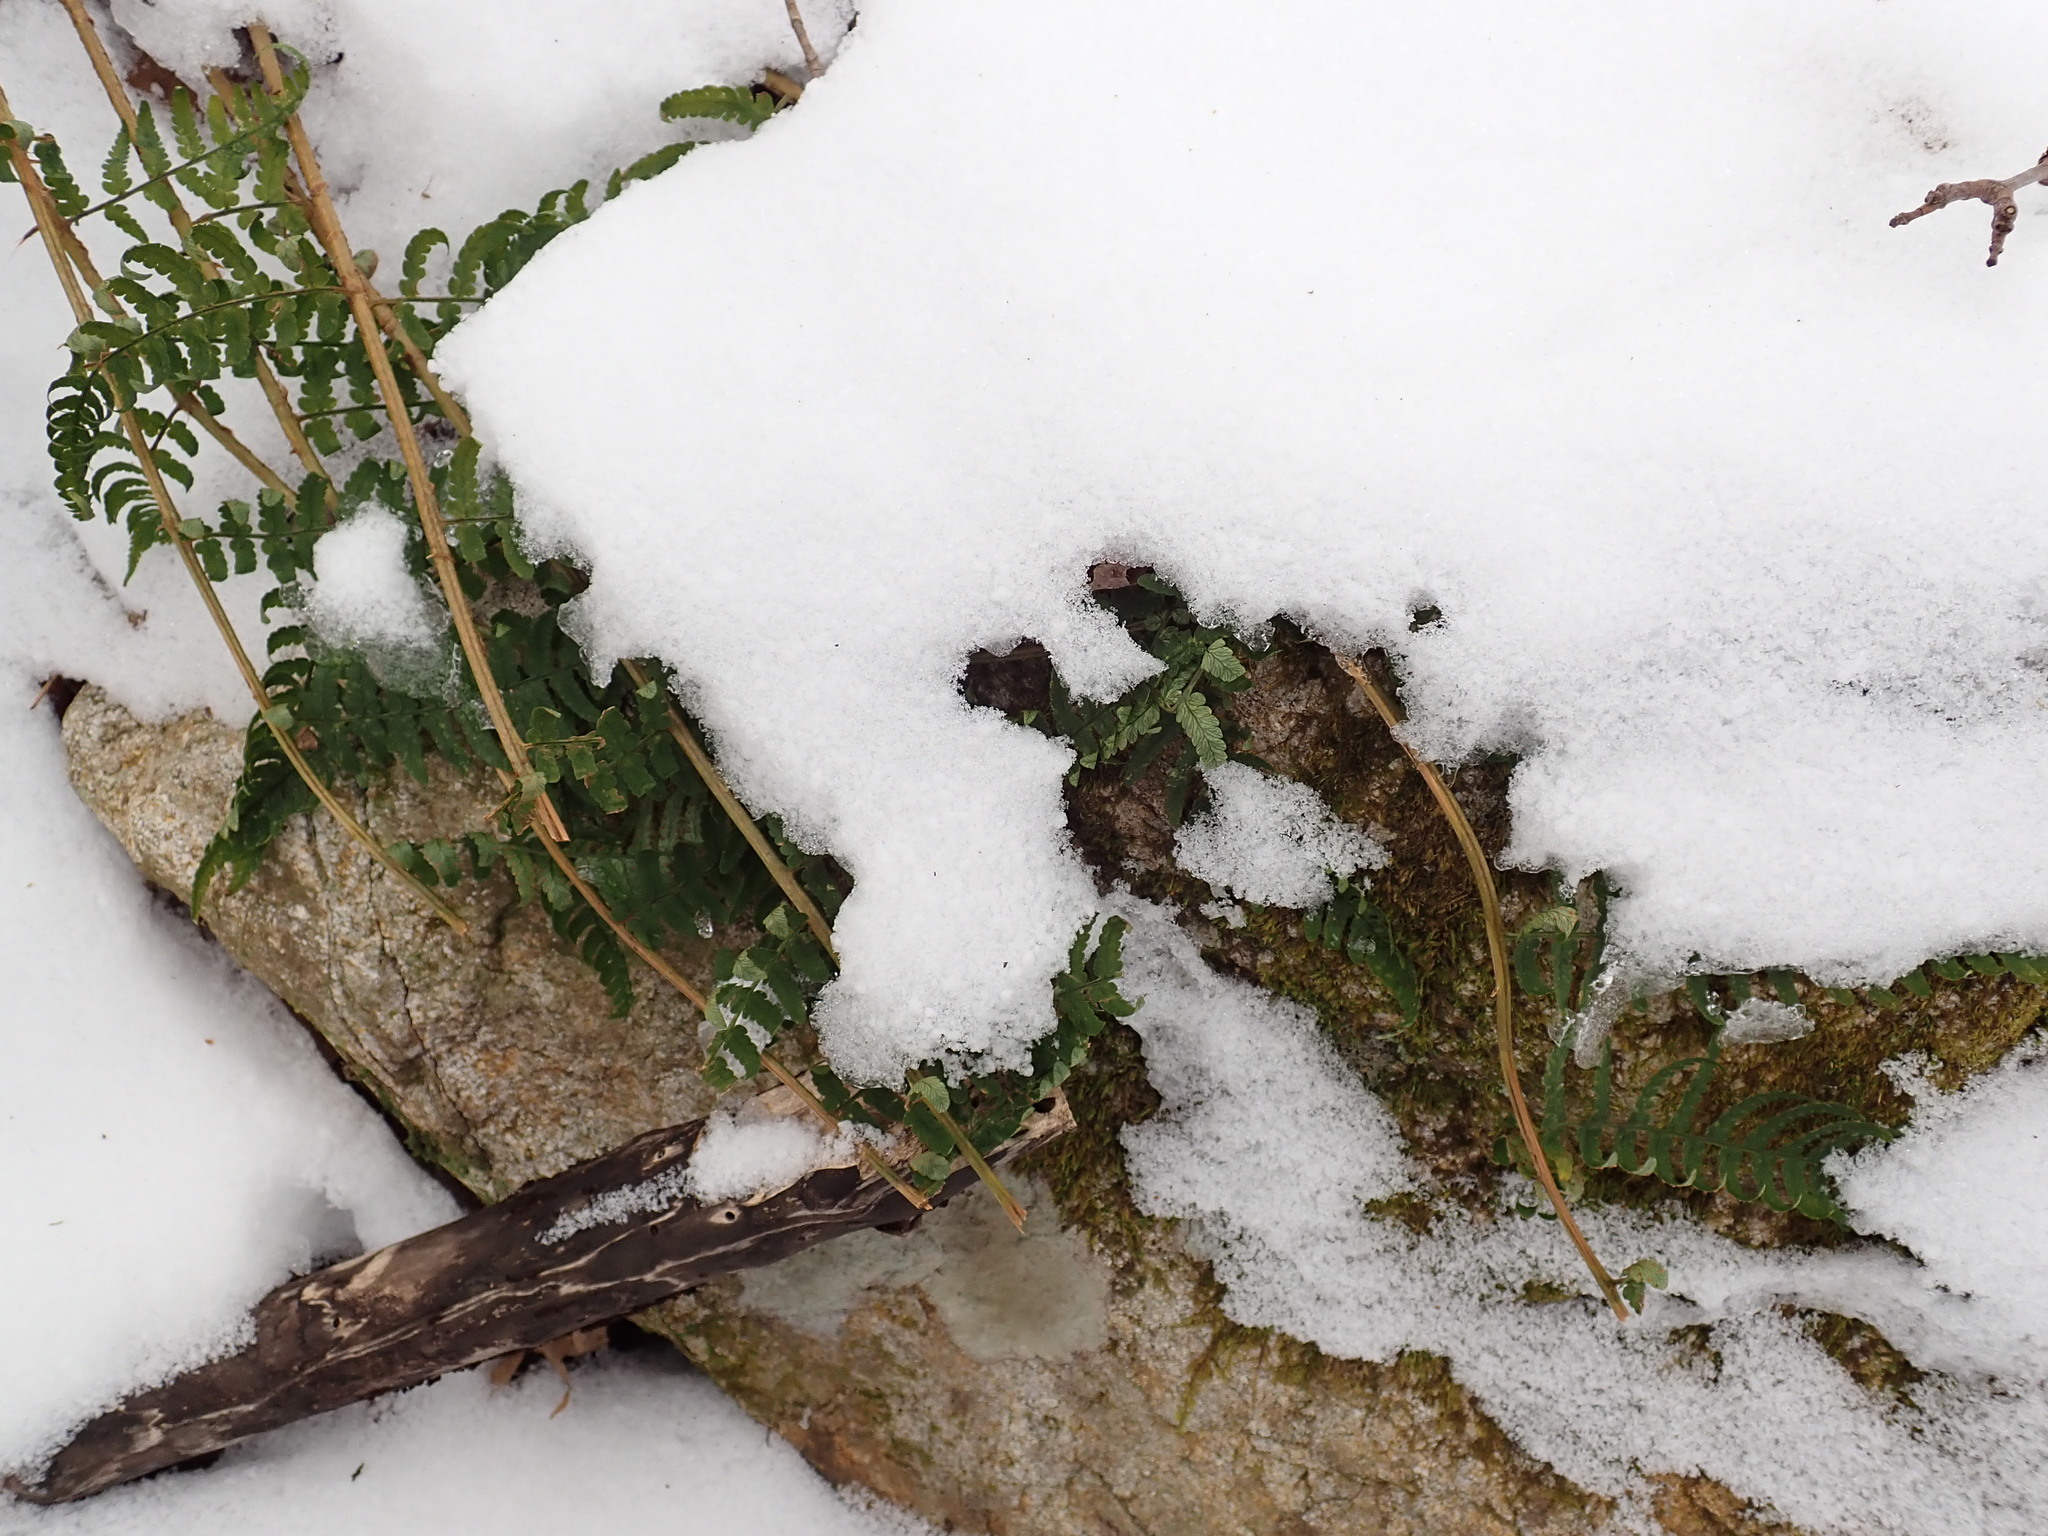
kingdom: Plantae
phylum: Tracheophyta
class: Polypodiopsida
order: Polypodiales
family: Dryopteridaceae
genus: Dryopteris
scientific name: Dryopteris marginalis
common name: Marginal wood fern
